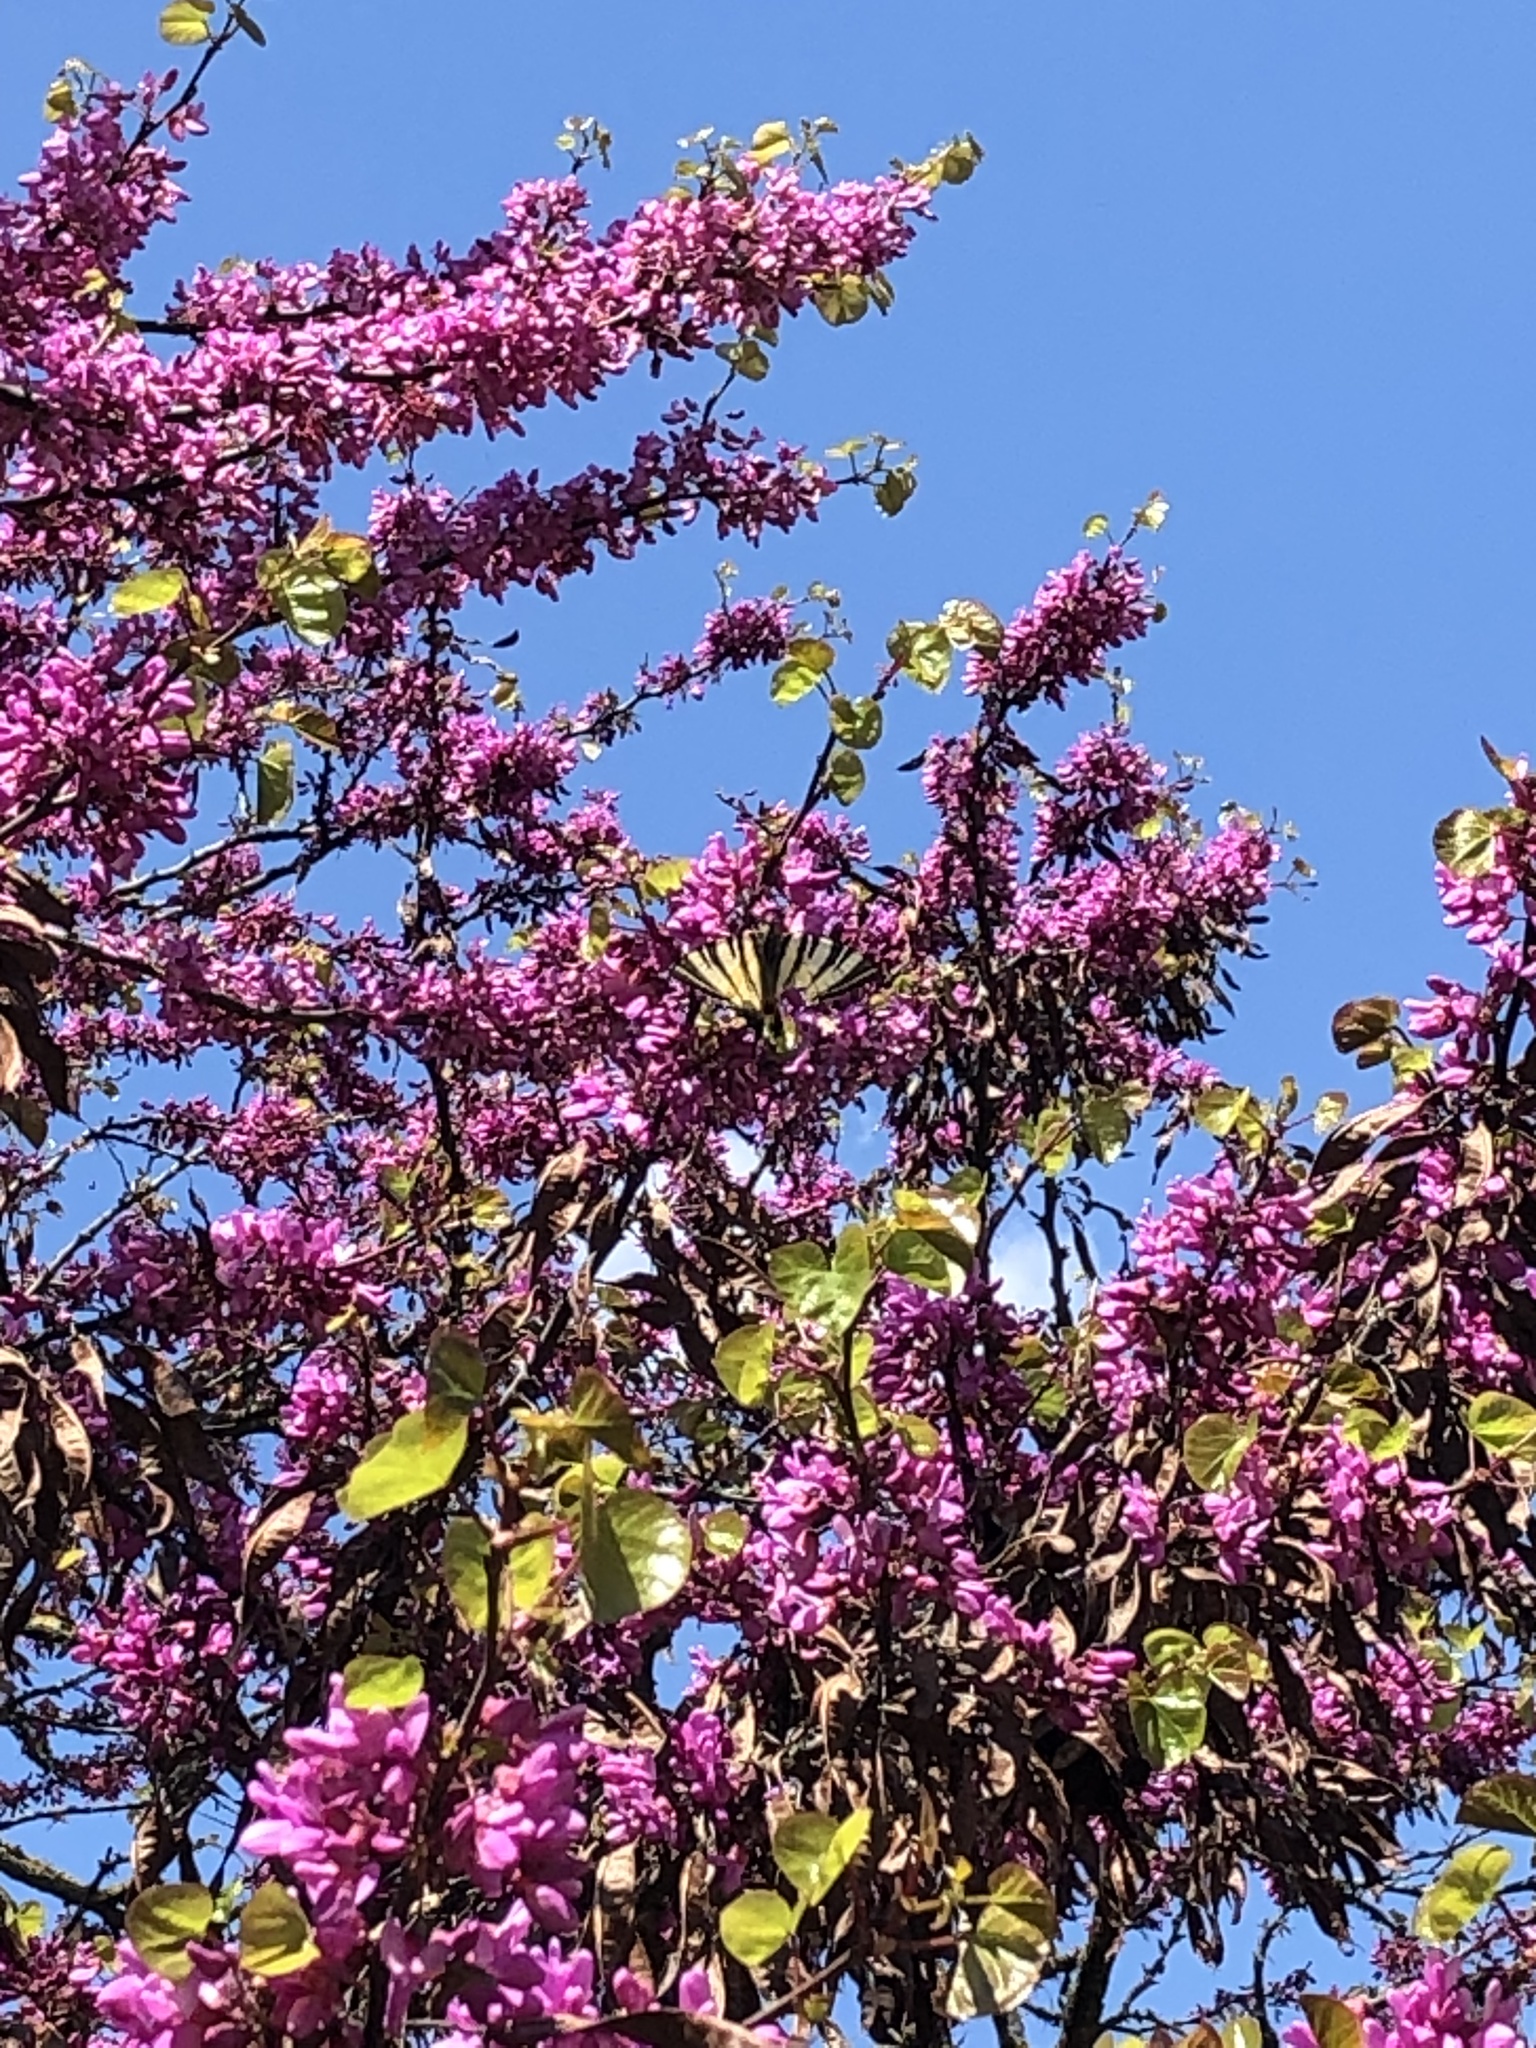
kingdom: Animalia
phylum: Arthropoda
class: Insecta
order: Lepidoptera
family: Papilionidae
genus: Iphiclides
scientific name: Iphiclides podalirius
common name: Scarce swallowtail
